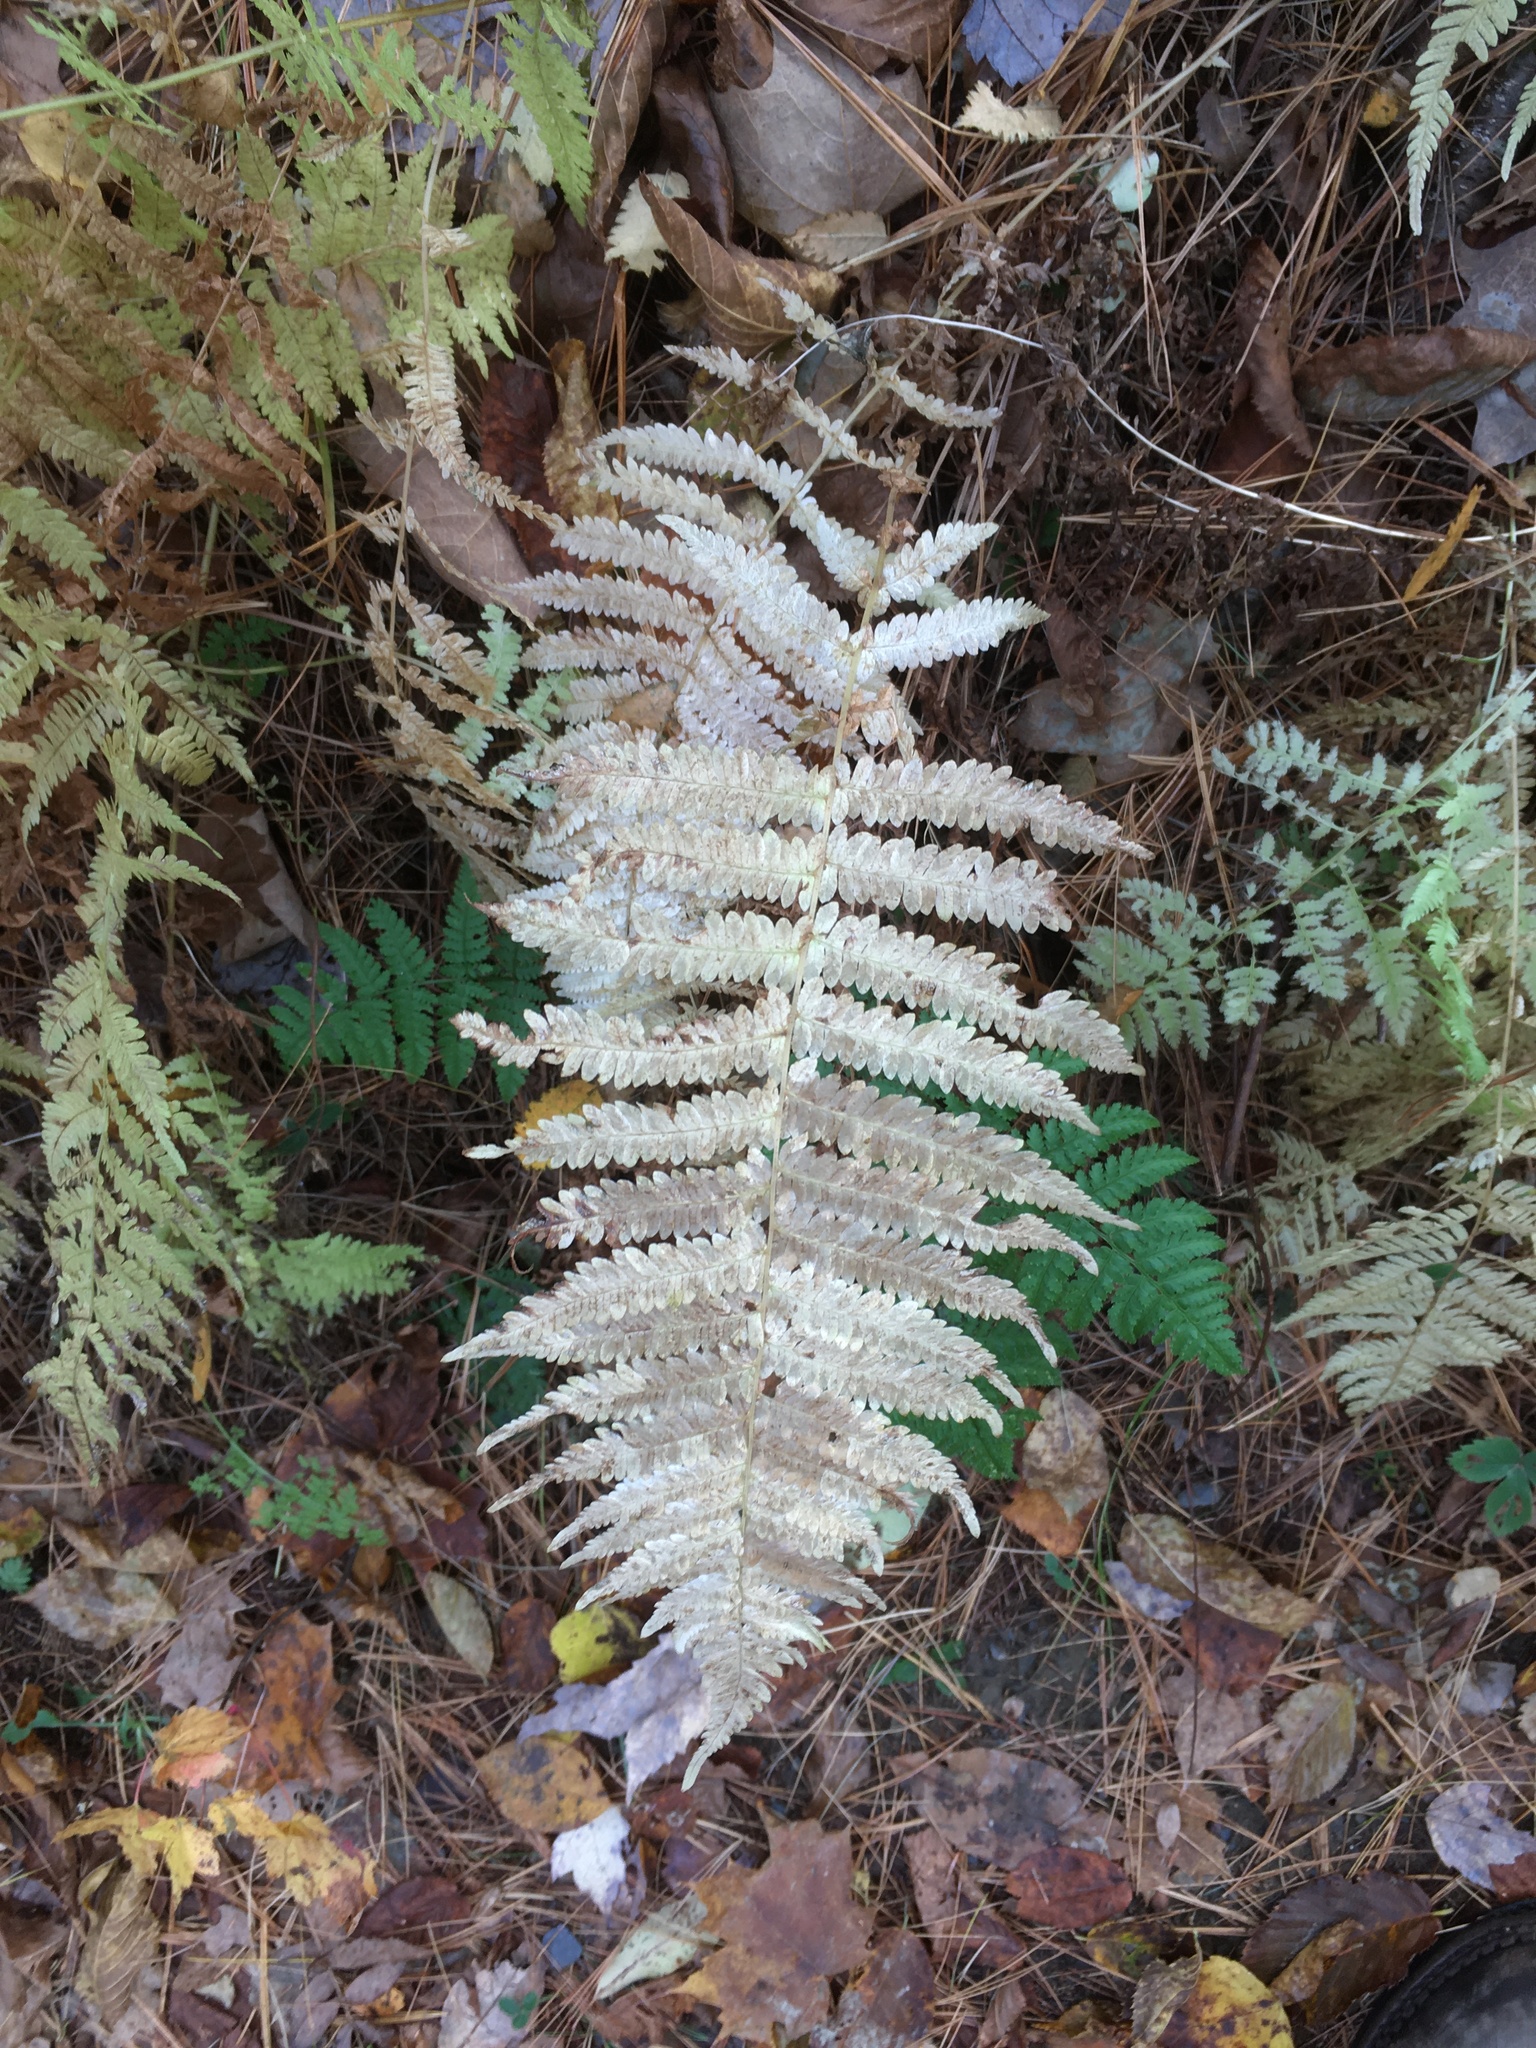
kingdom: Plantae
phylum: Tracheophyta
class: Polypodiopsida
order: Polypodiales
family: Thelypteridaceae
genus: Amauropelta
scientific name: Amauropelta noveboracensis
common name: New york fern
